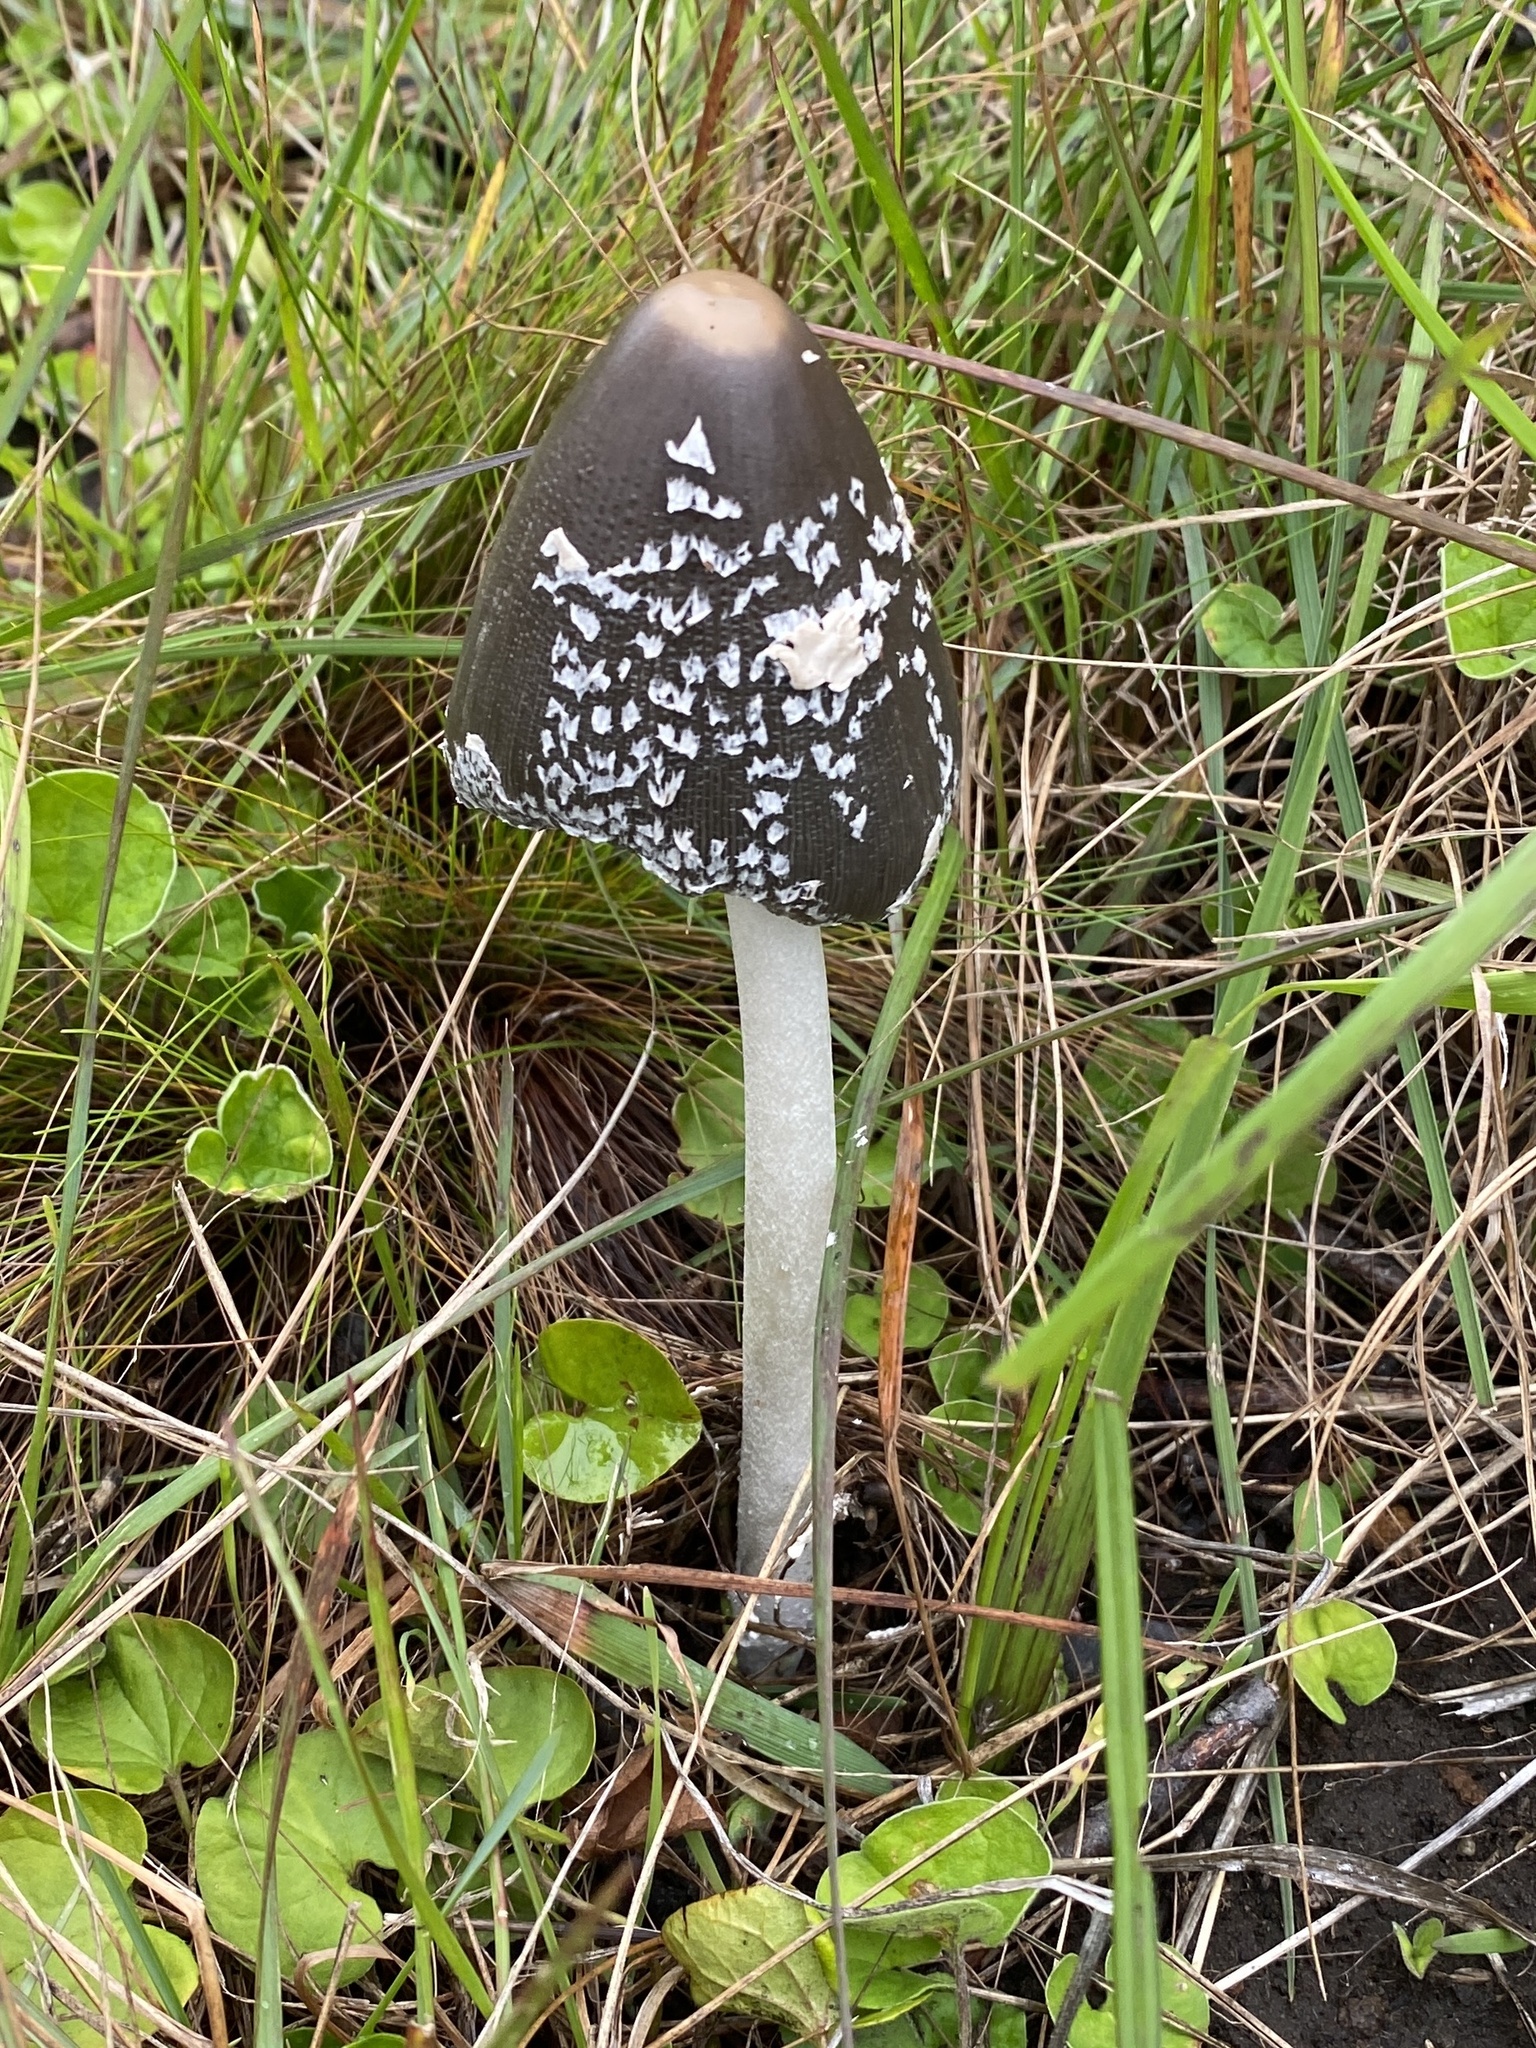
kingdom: Fungi
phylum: Basidiomycota
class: Agaricomycetes
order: Agaricales
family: Psathyrellaceae
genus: Coprinopsis
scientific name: Coprinopsis picacea
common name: Magpie inkcap
